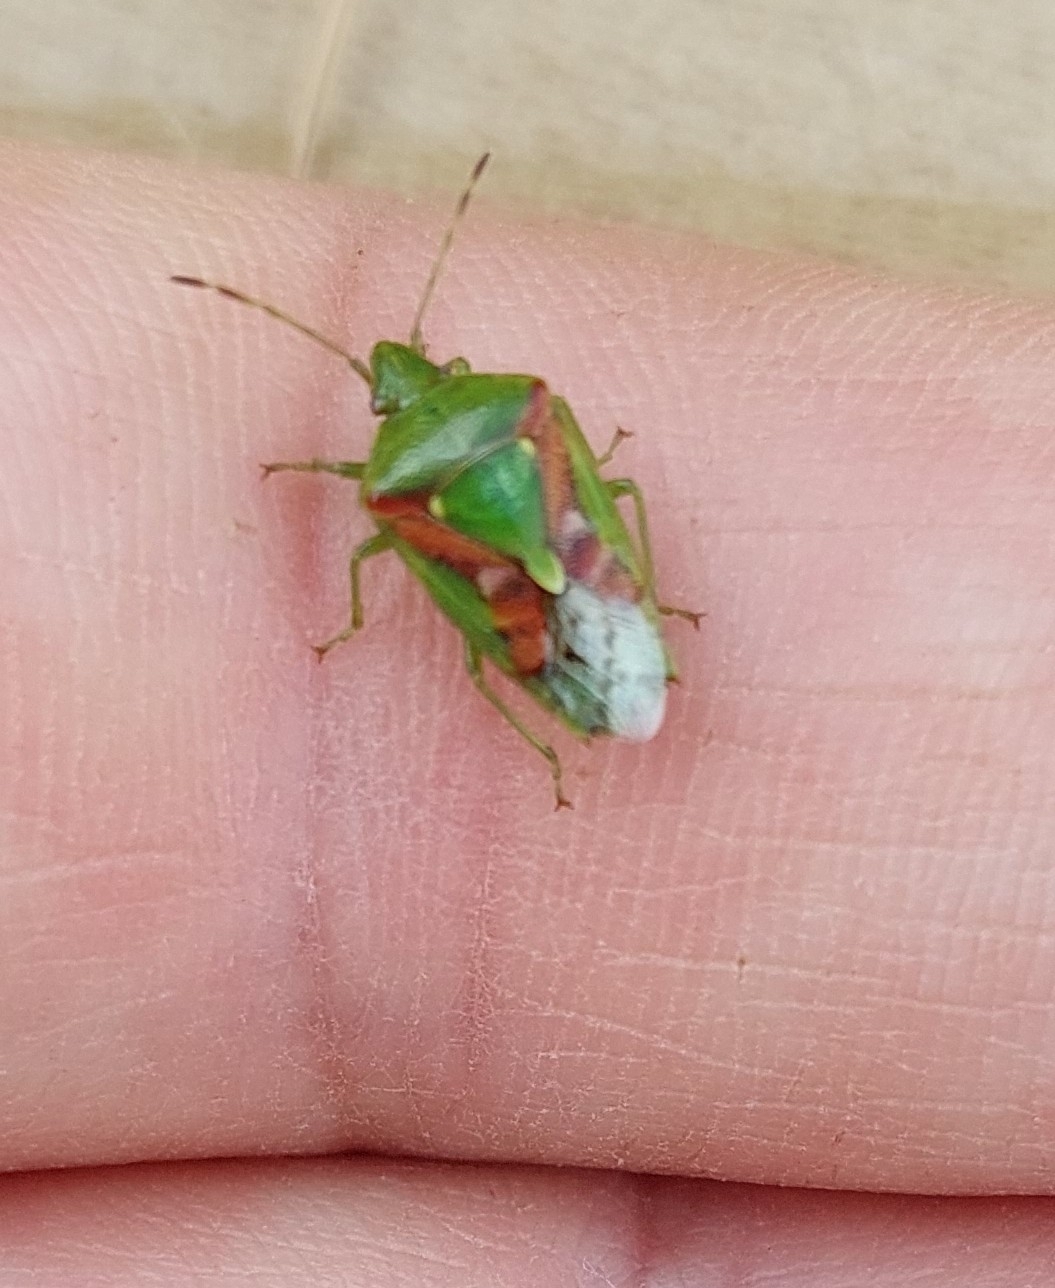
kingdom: Animalia
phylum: Arthropoda
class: Insecta
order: Hemiptera
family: Acanthosomatidae
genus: Cyphostethus
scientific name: Cyphostethus tristriatus
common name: Juniper shieldbug
